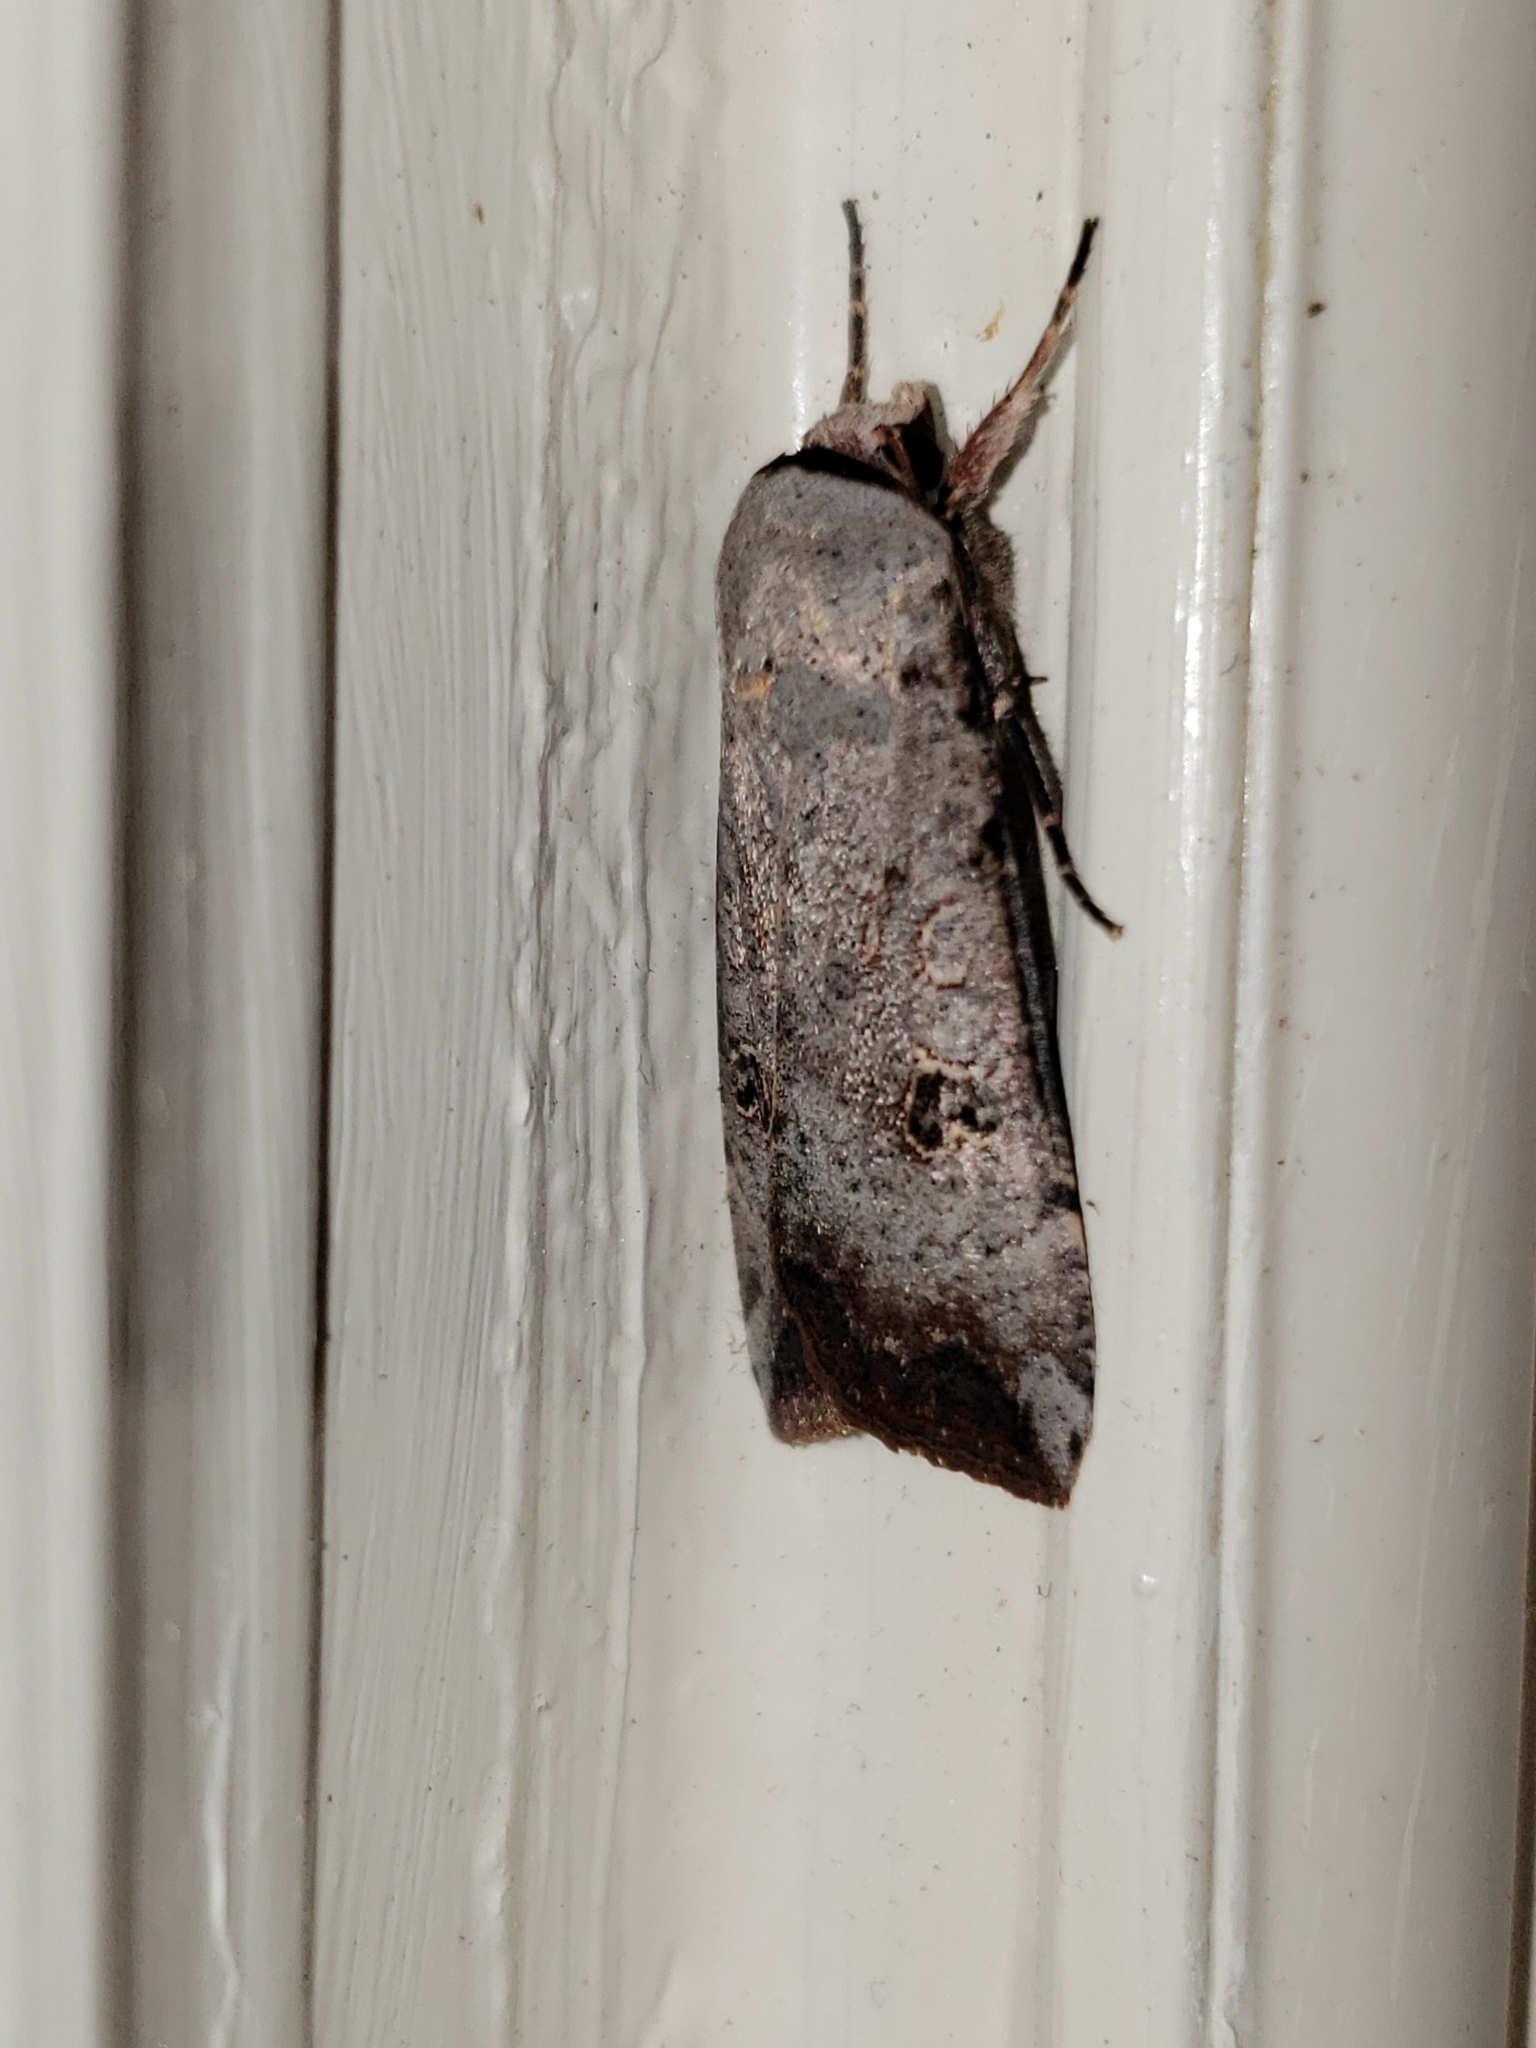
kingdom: Animalia
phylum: Arthropoda
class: Insecta
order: Lepidoptera
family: Noctuidae
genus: Anicla
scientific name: Anicla infecta
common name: Green cutworm
